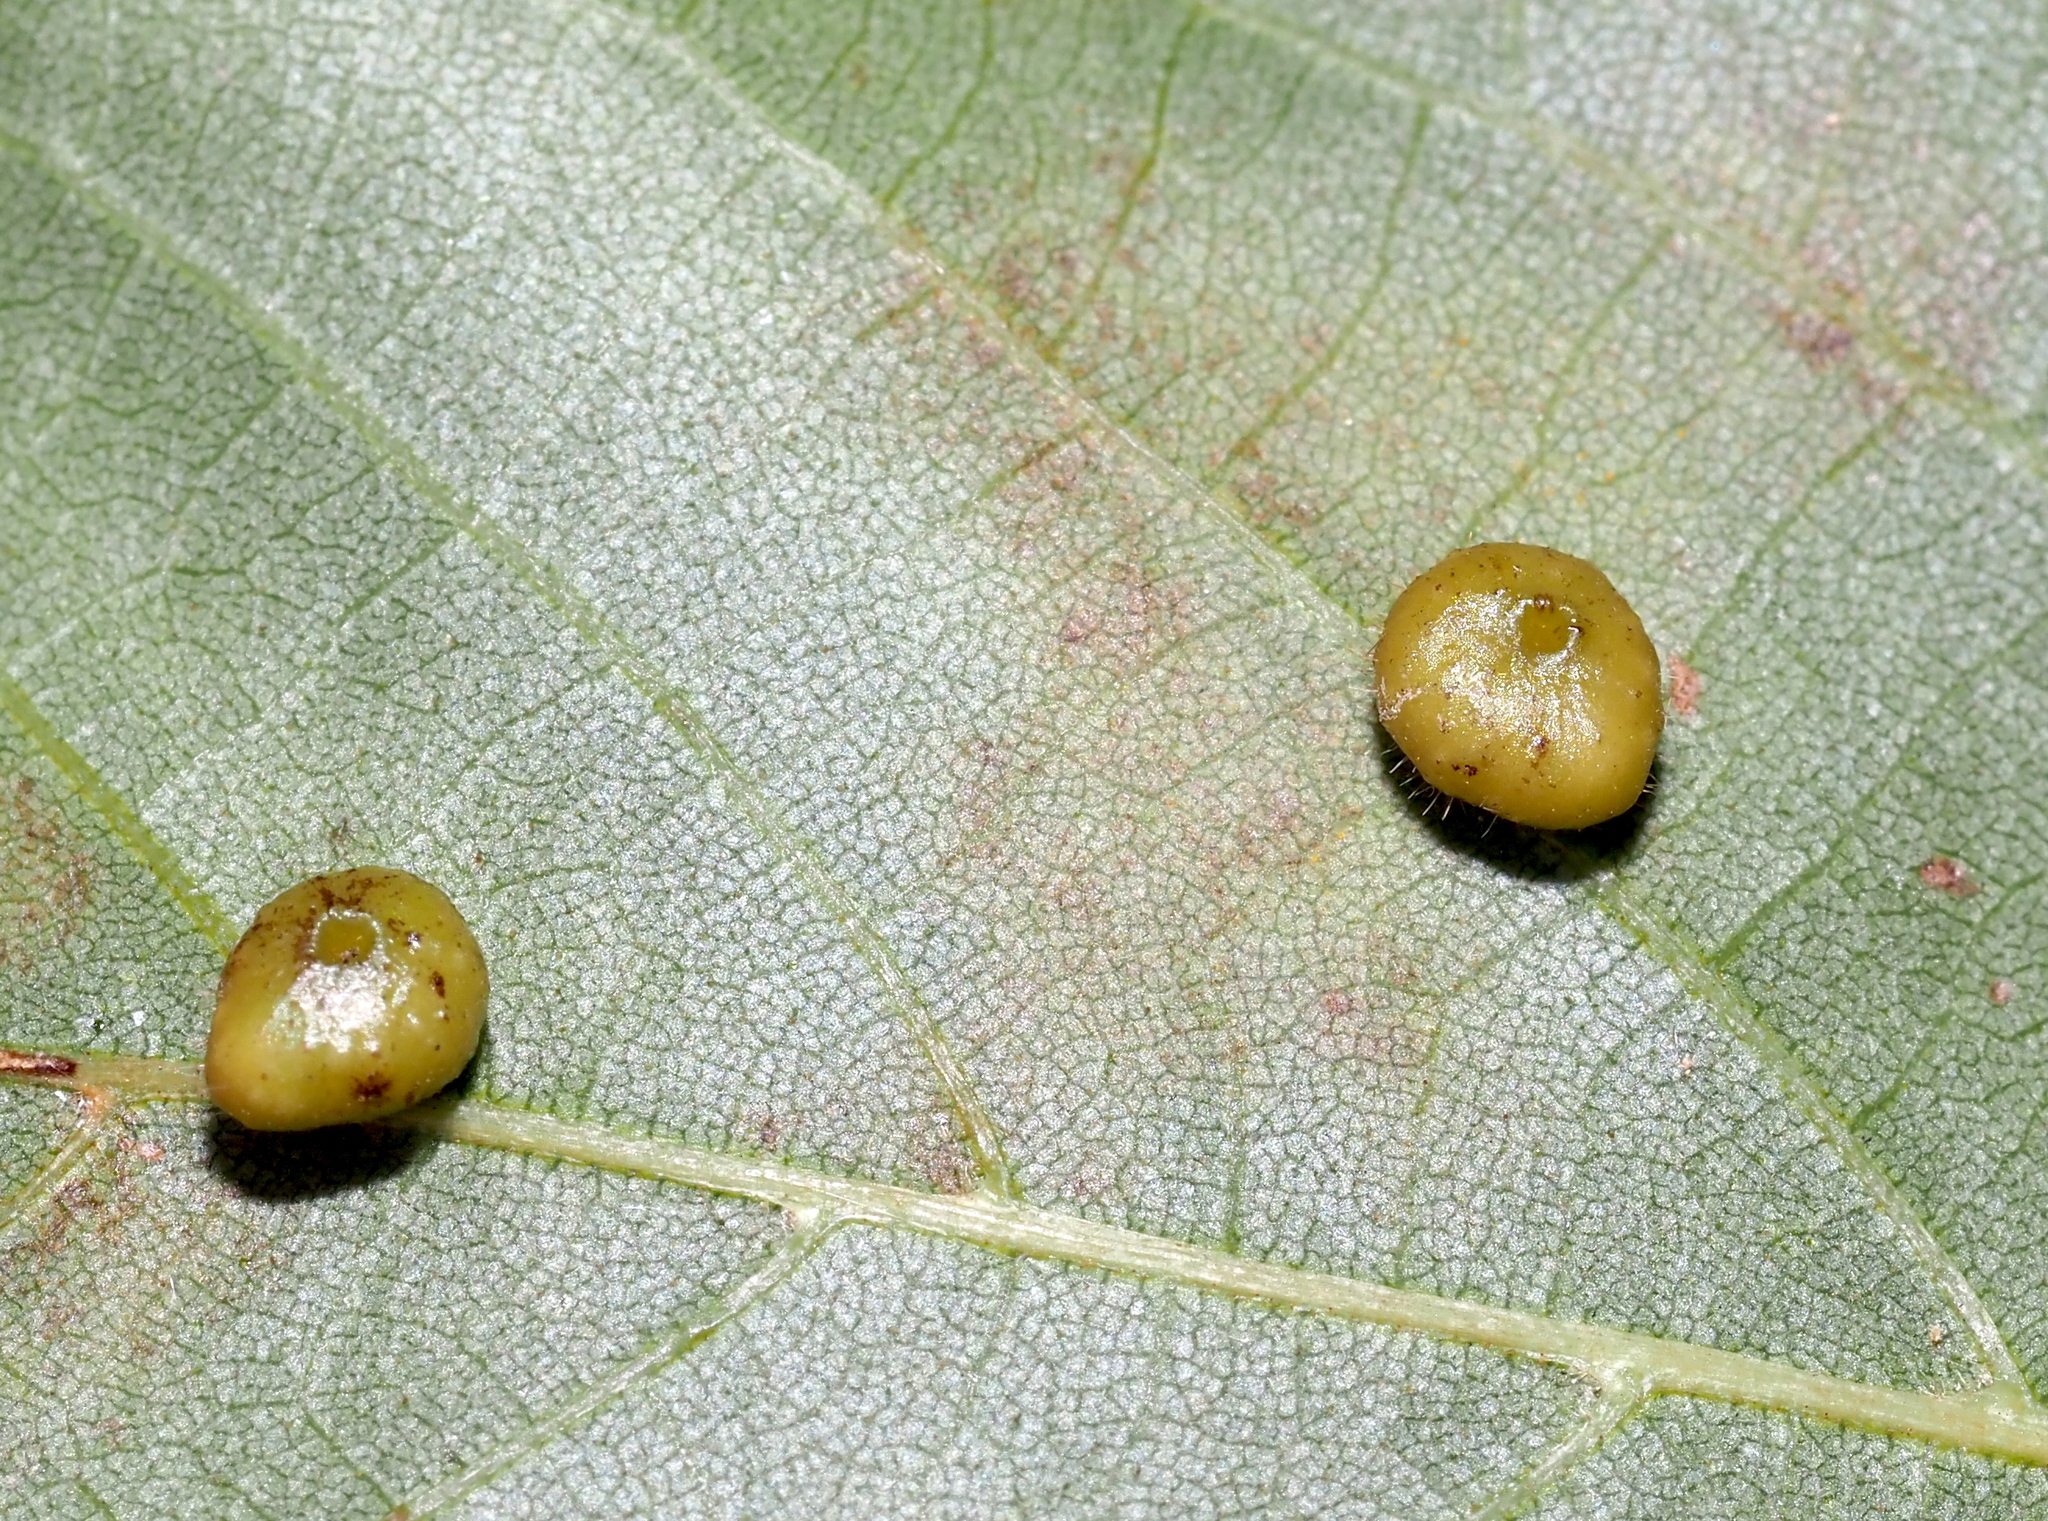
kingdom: Animalia
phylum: Arthropoda
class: Insecta
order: Diptera
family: Cecidomyiidae
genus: Caryomyia
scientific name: Caryomyia caryae
